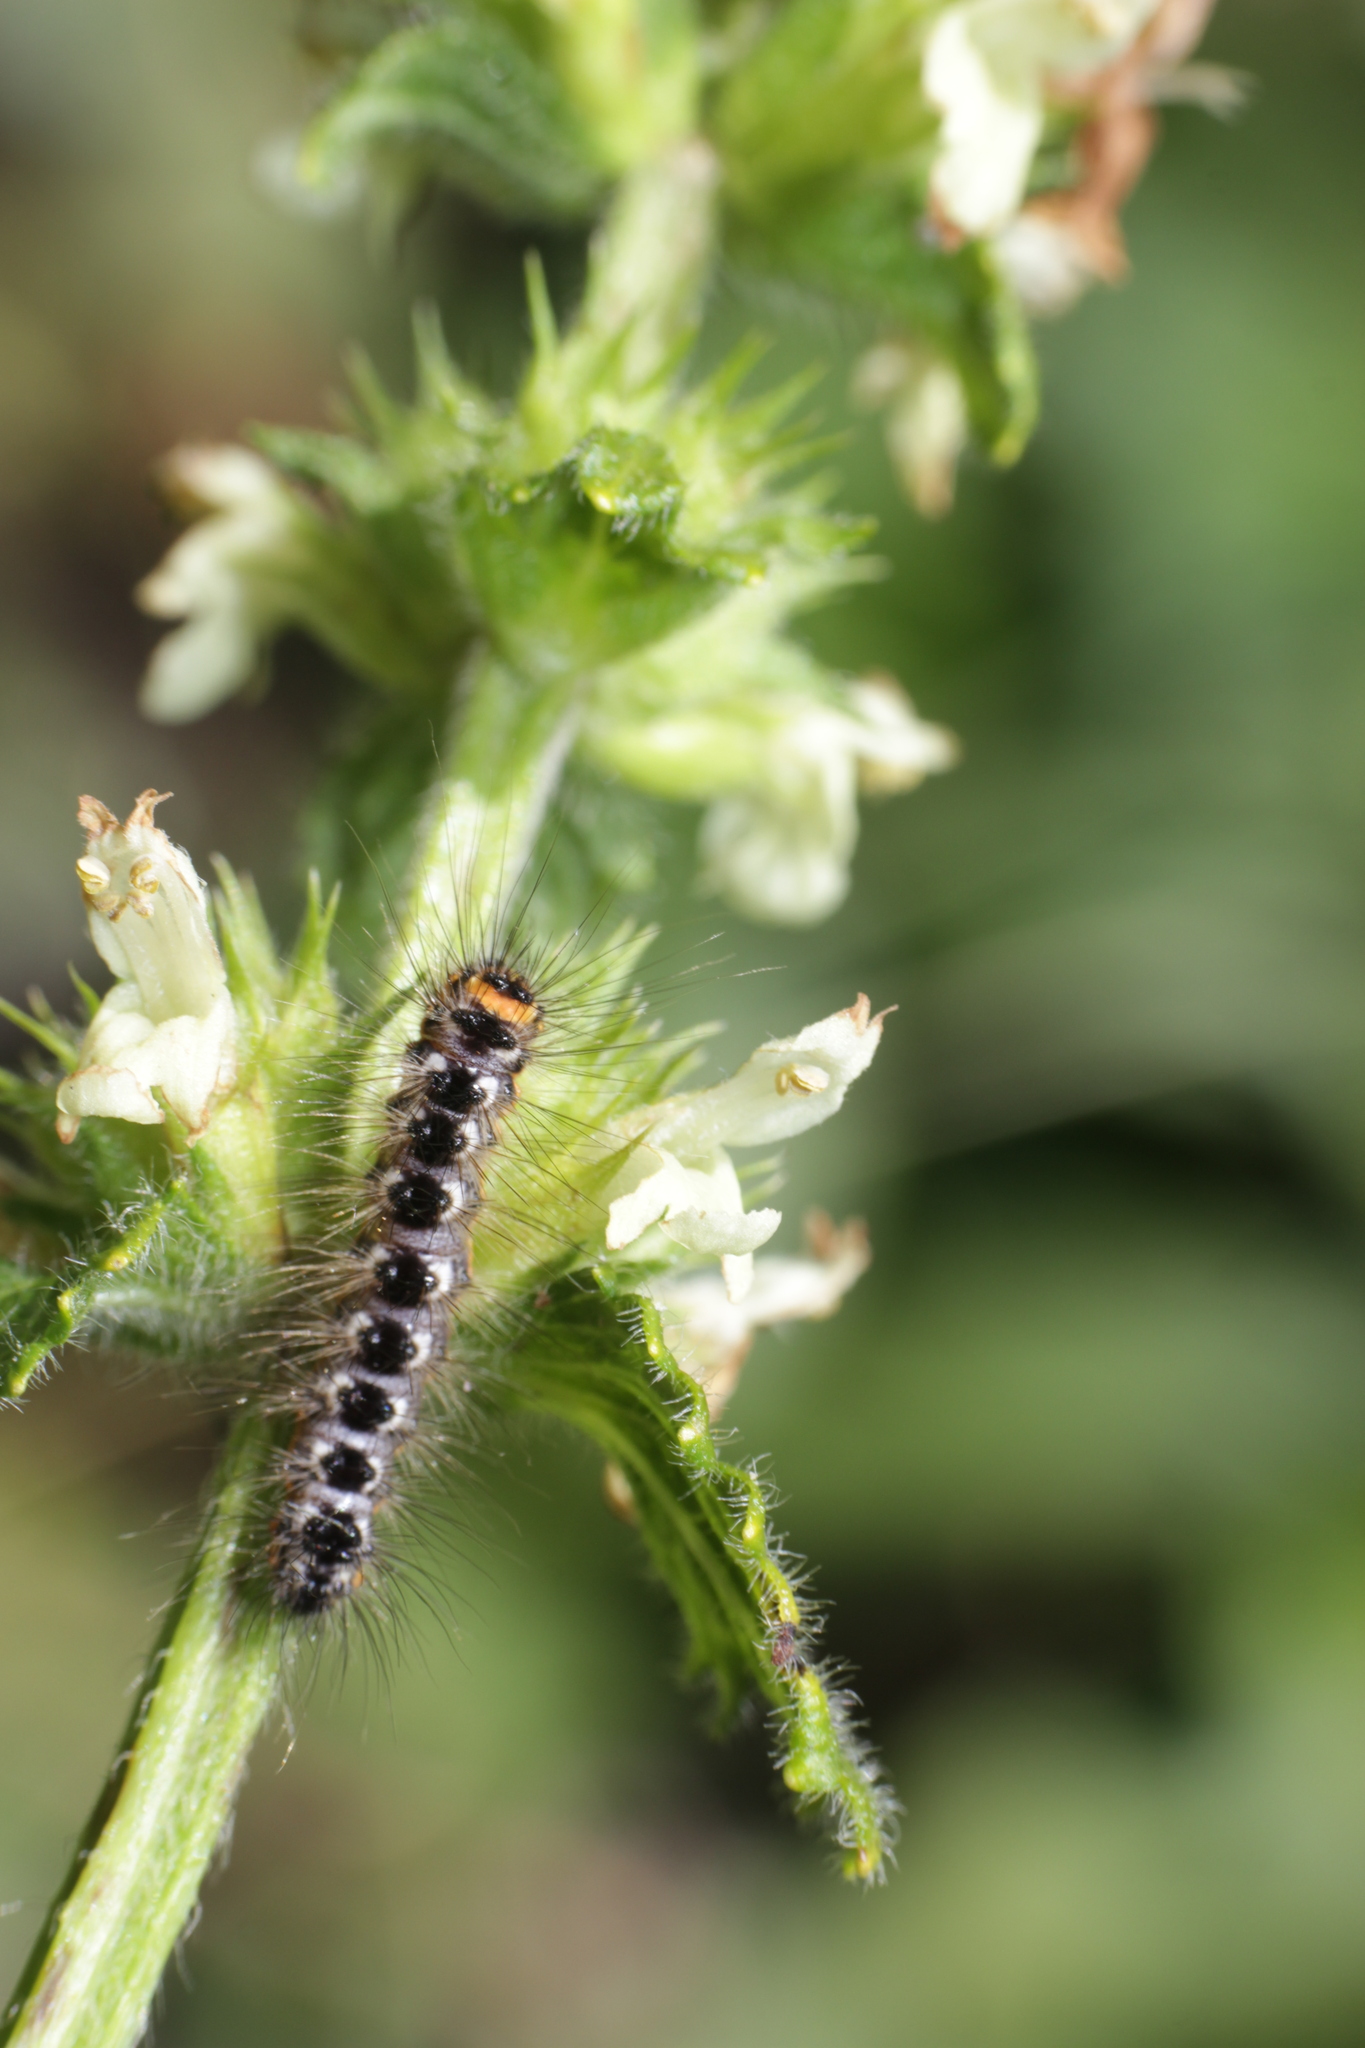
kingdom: Animalia
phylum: Arthropoda
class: Insecta
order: Lepidoptera
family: Noctuidae
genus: Acronicta
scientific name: Acronicta euphorbiae
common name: Sweet gale moth
